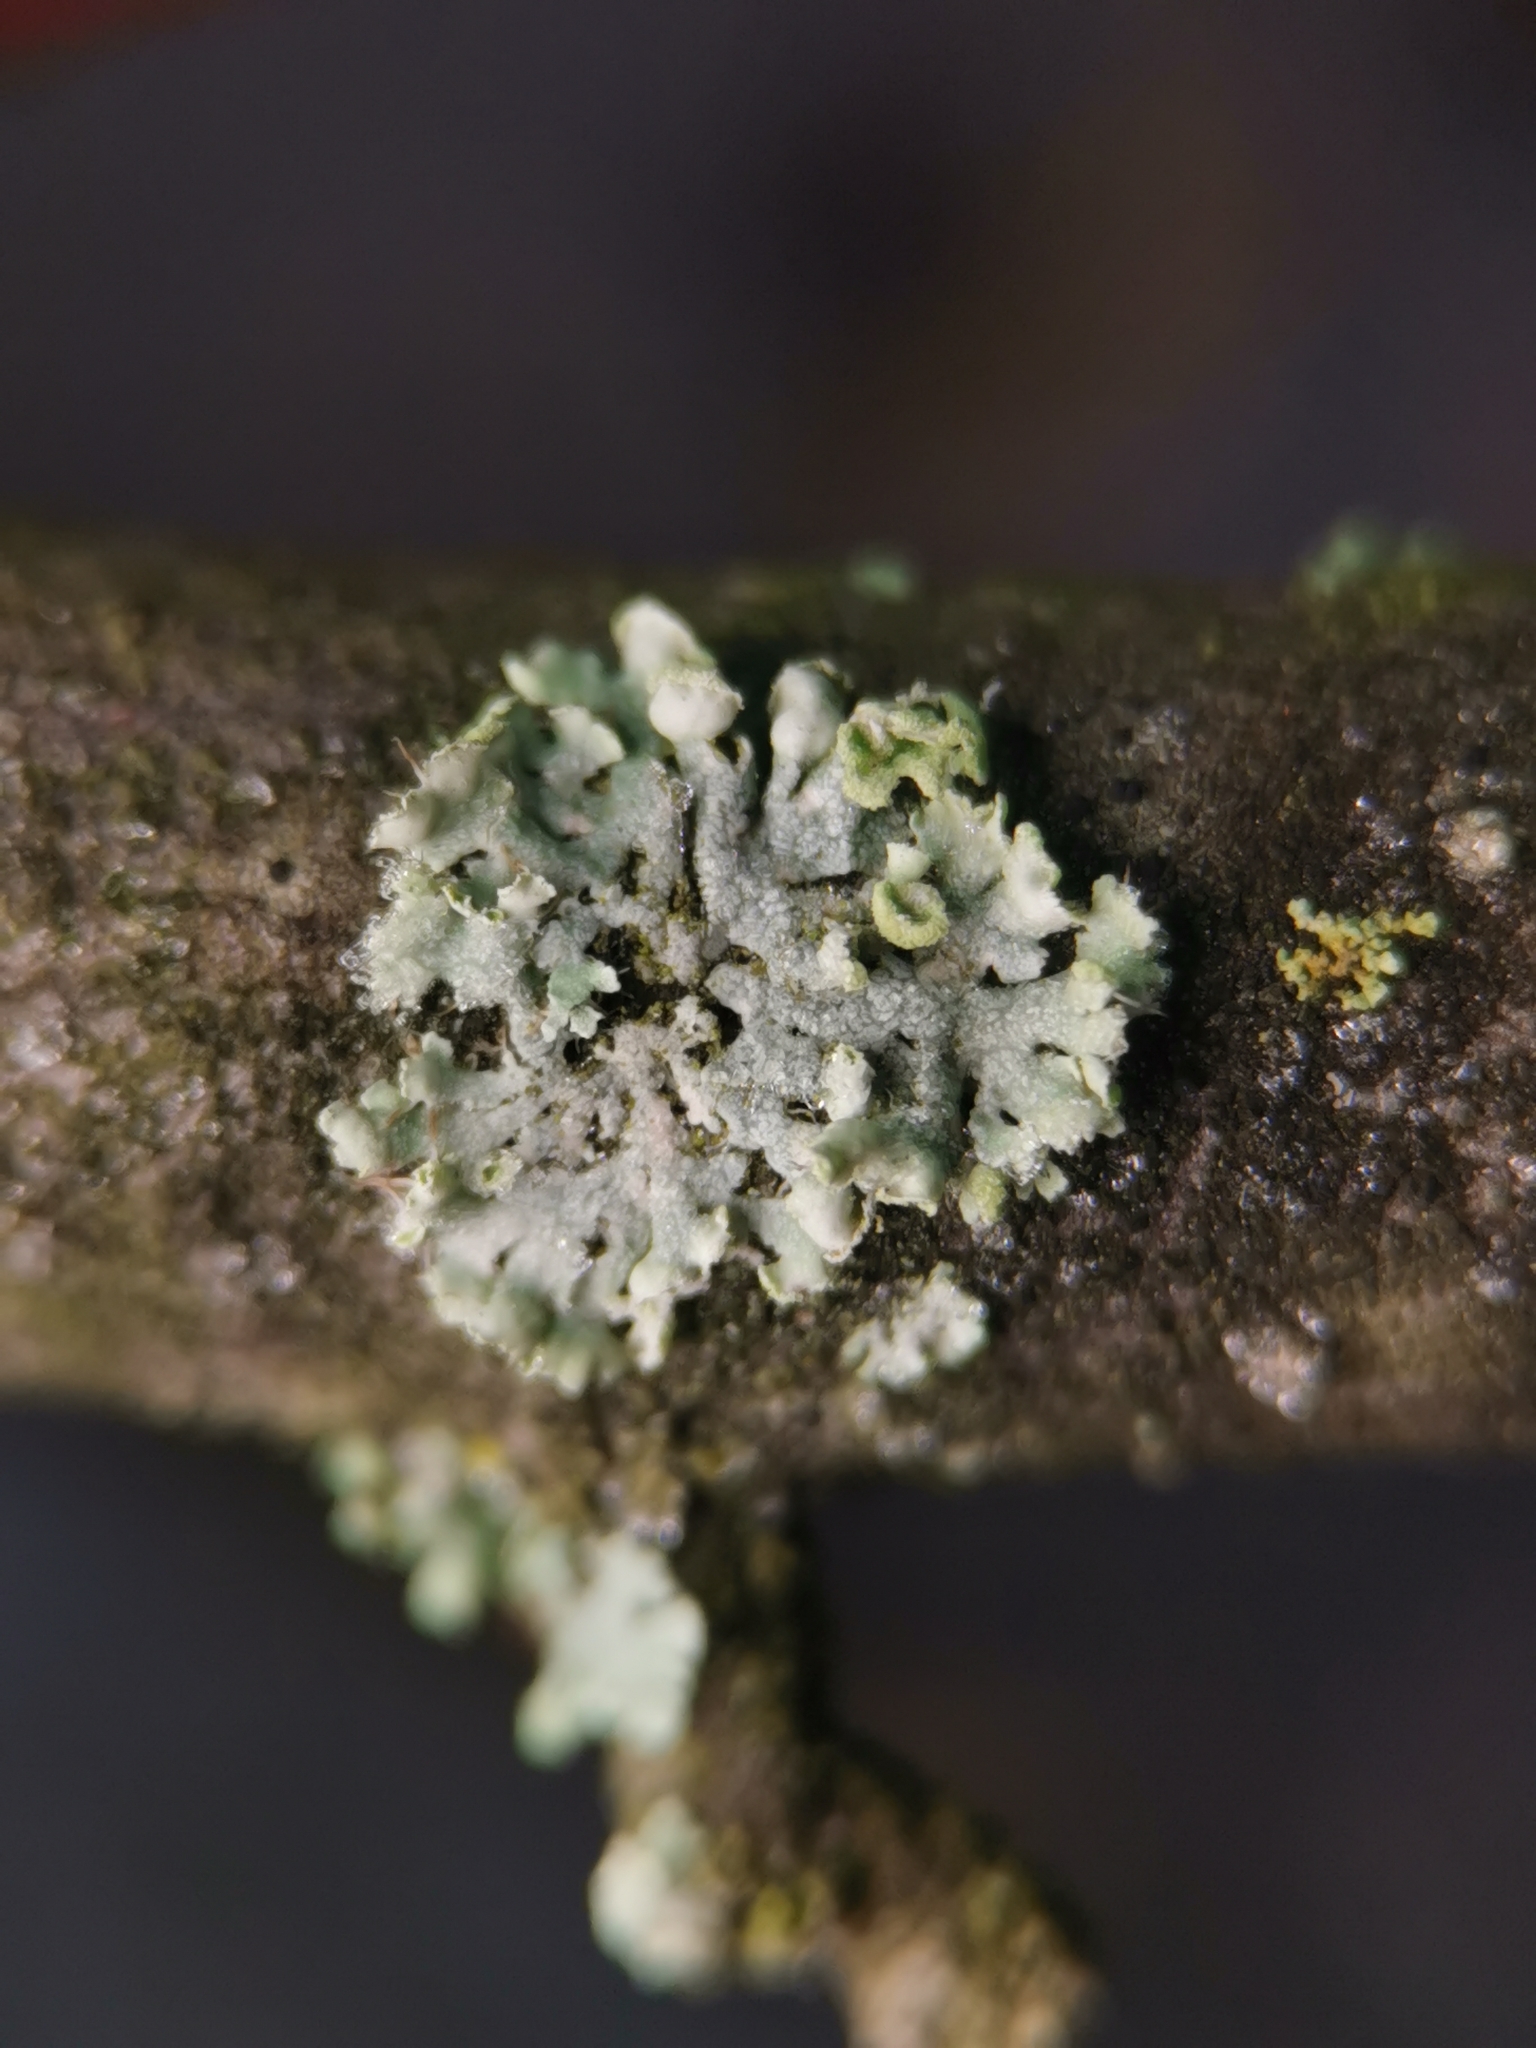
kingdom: Fungi
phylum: Ascomycota
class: Lecanoromycetes
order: Caliciales
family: Physciaceae
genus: Physcia
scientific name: Physcia adscendens
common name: Hooded rosette lichen
